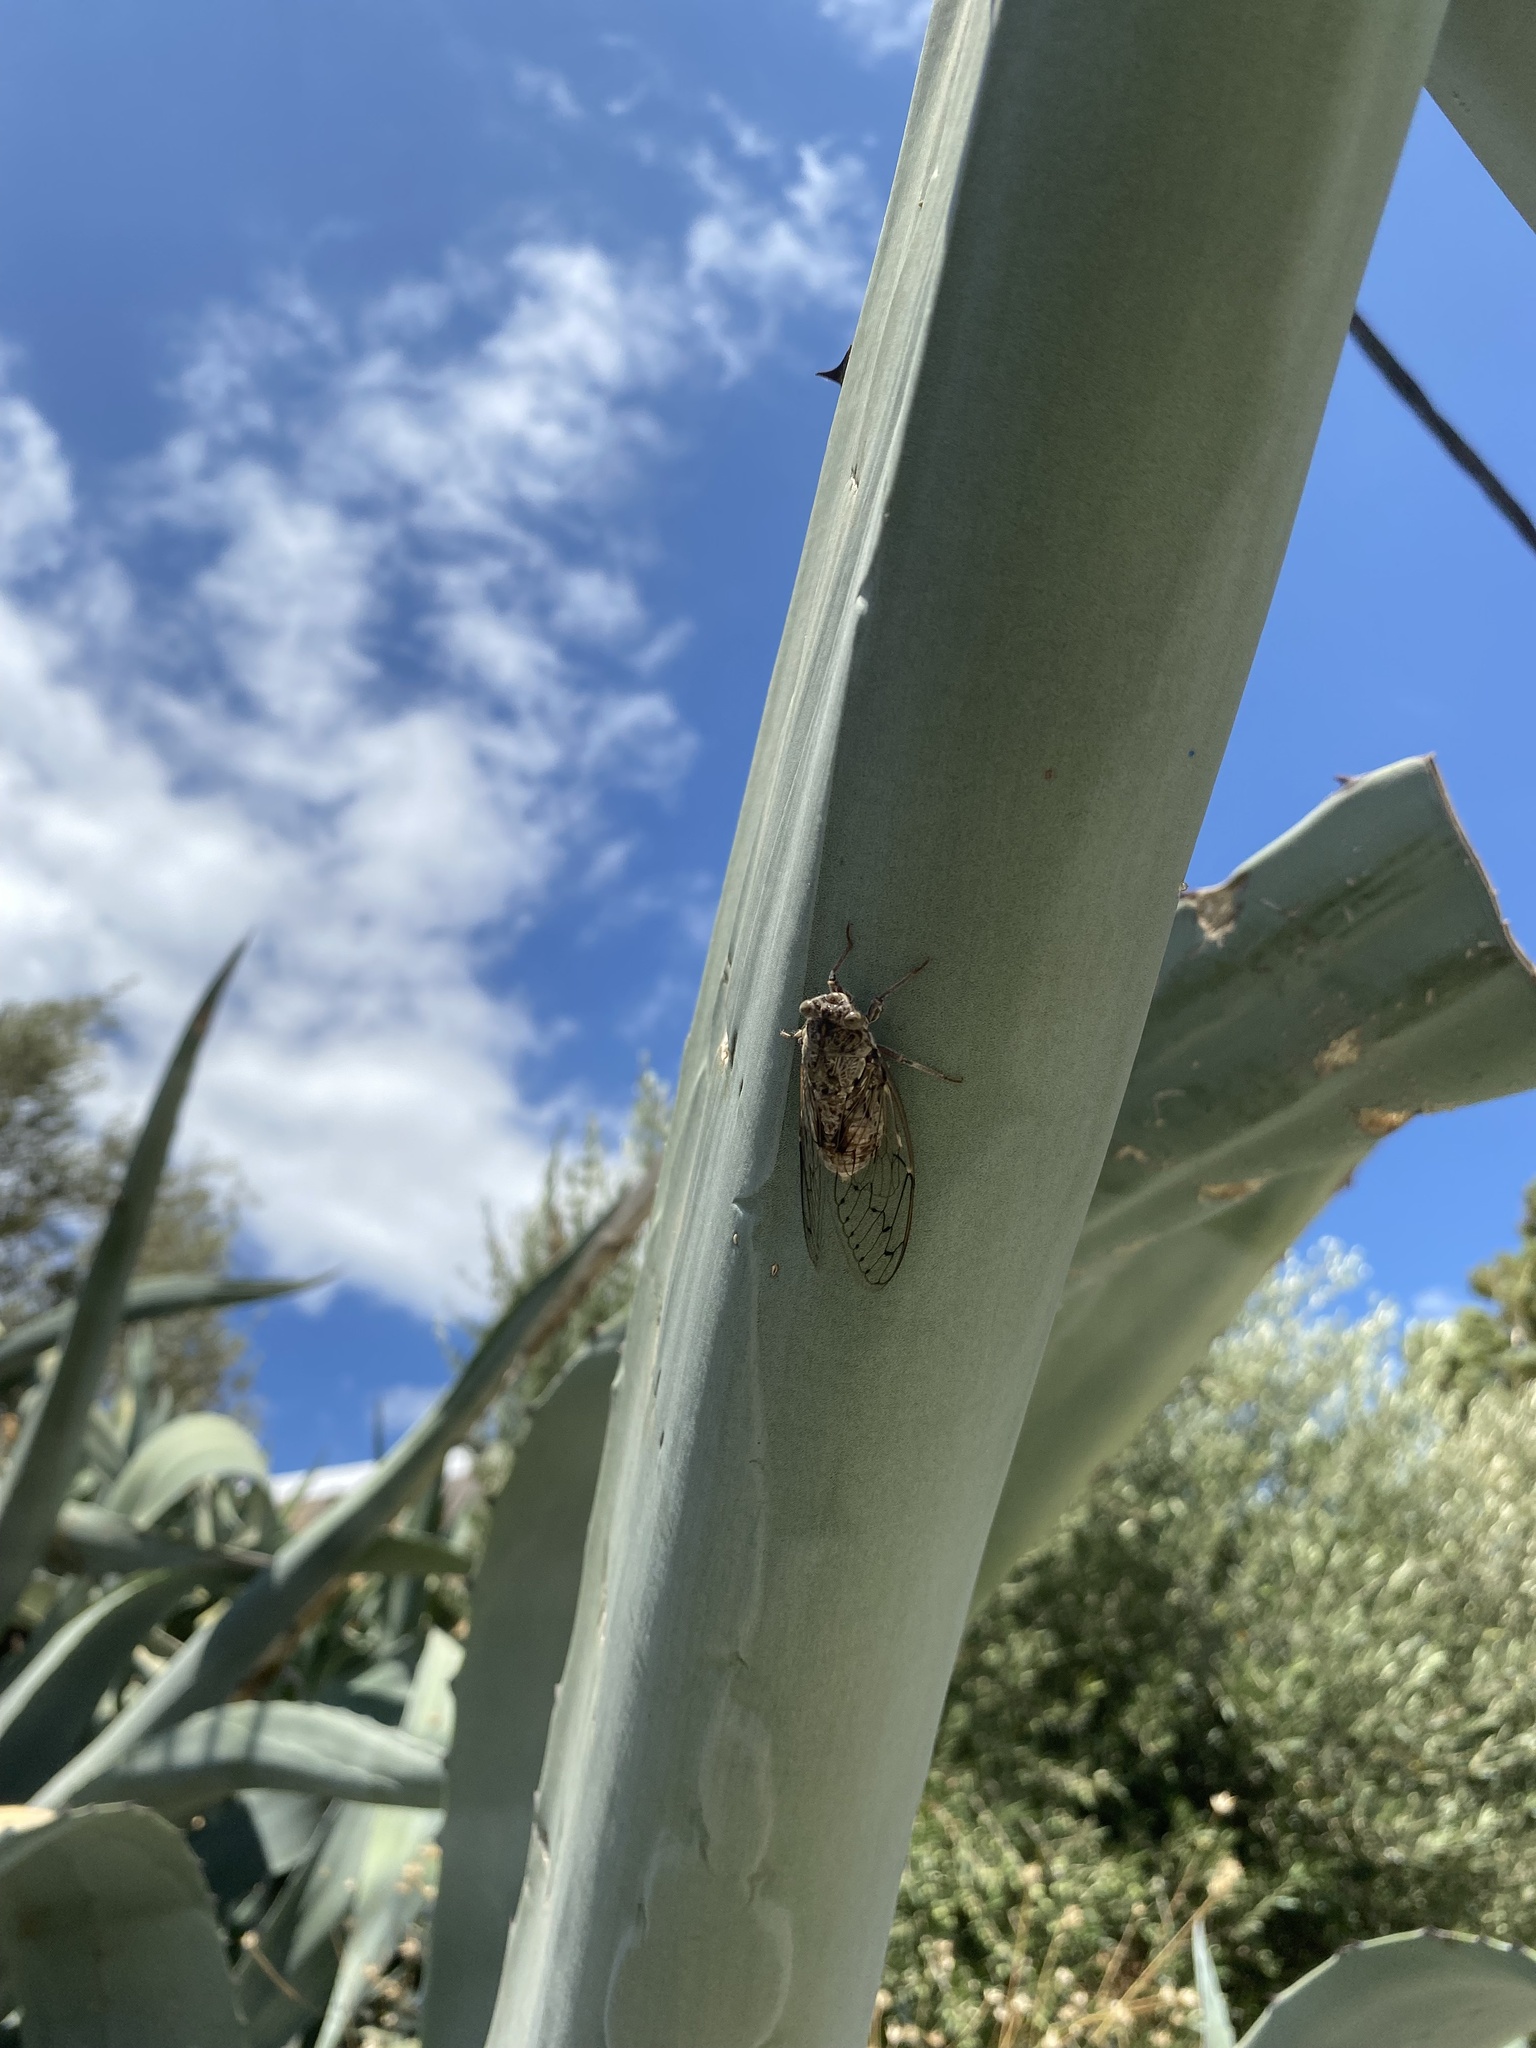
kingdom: Animalia
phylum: Arthropoda
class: Insecta
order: Hemiptera
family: Cicadidae
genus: Cicada
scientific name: Cicada cretensis
